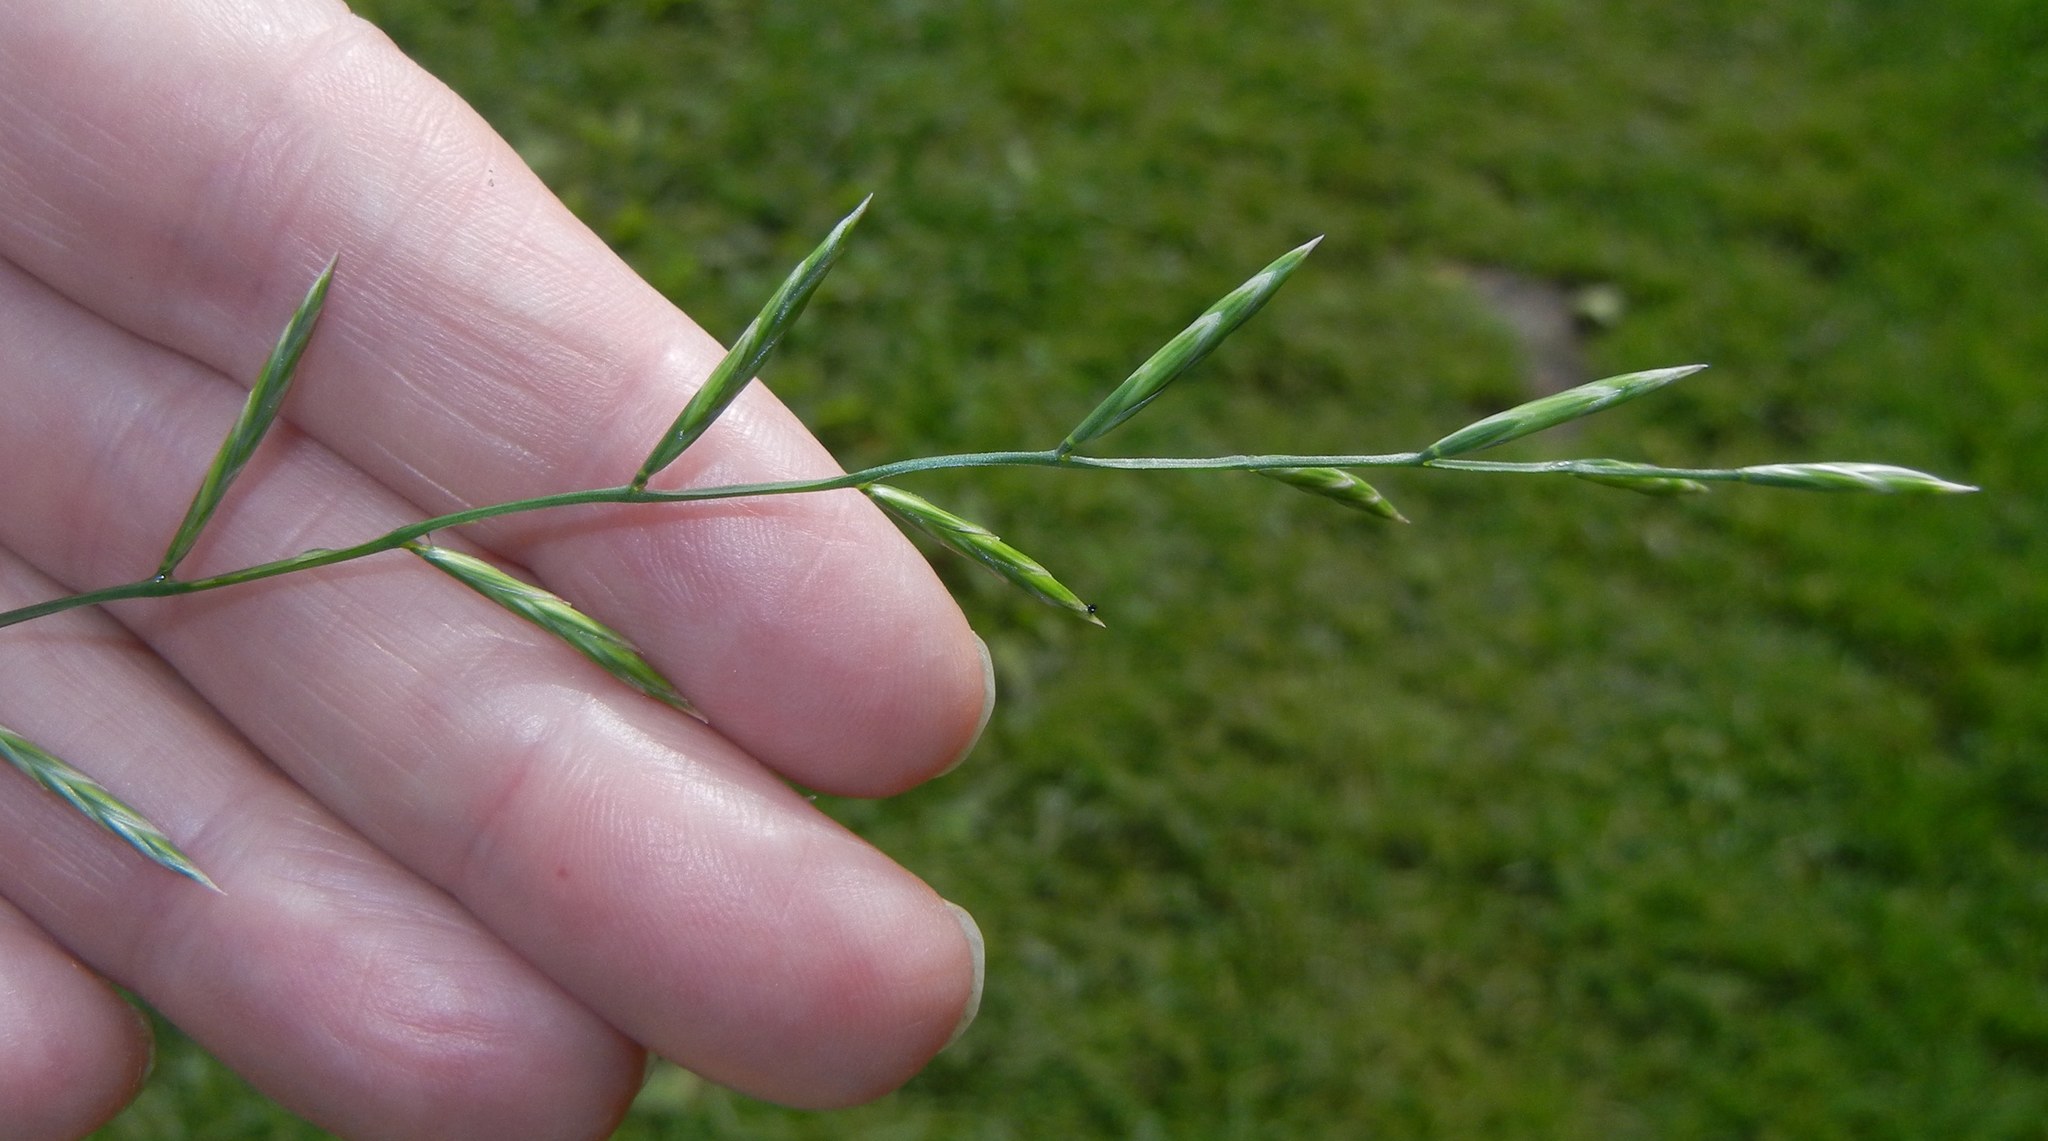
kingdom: Plantae
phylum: Tracheophyta
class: Liliopsida
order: Poales
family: Poaceae
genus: Brachypodium
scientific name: Brachypodium pinnatum
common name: Tor grass
